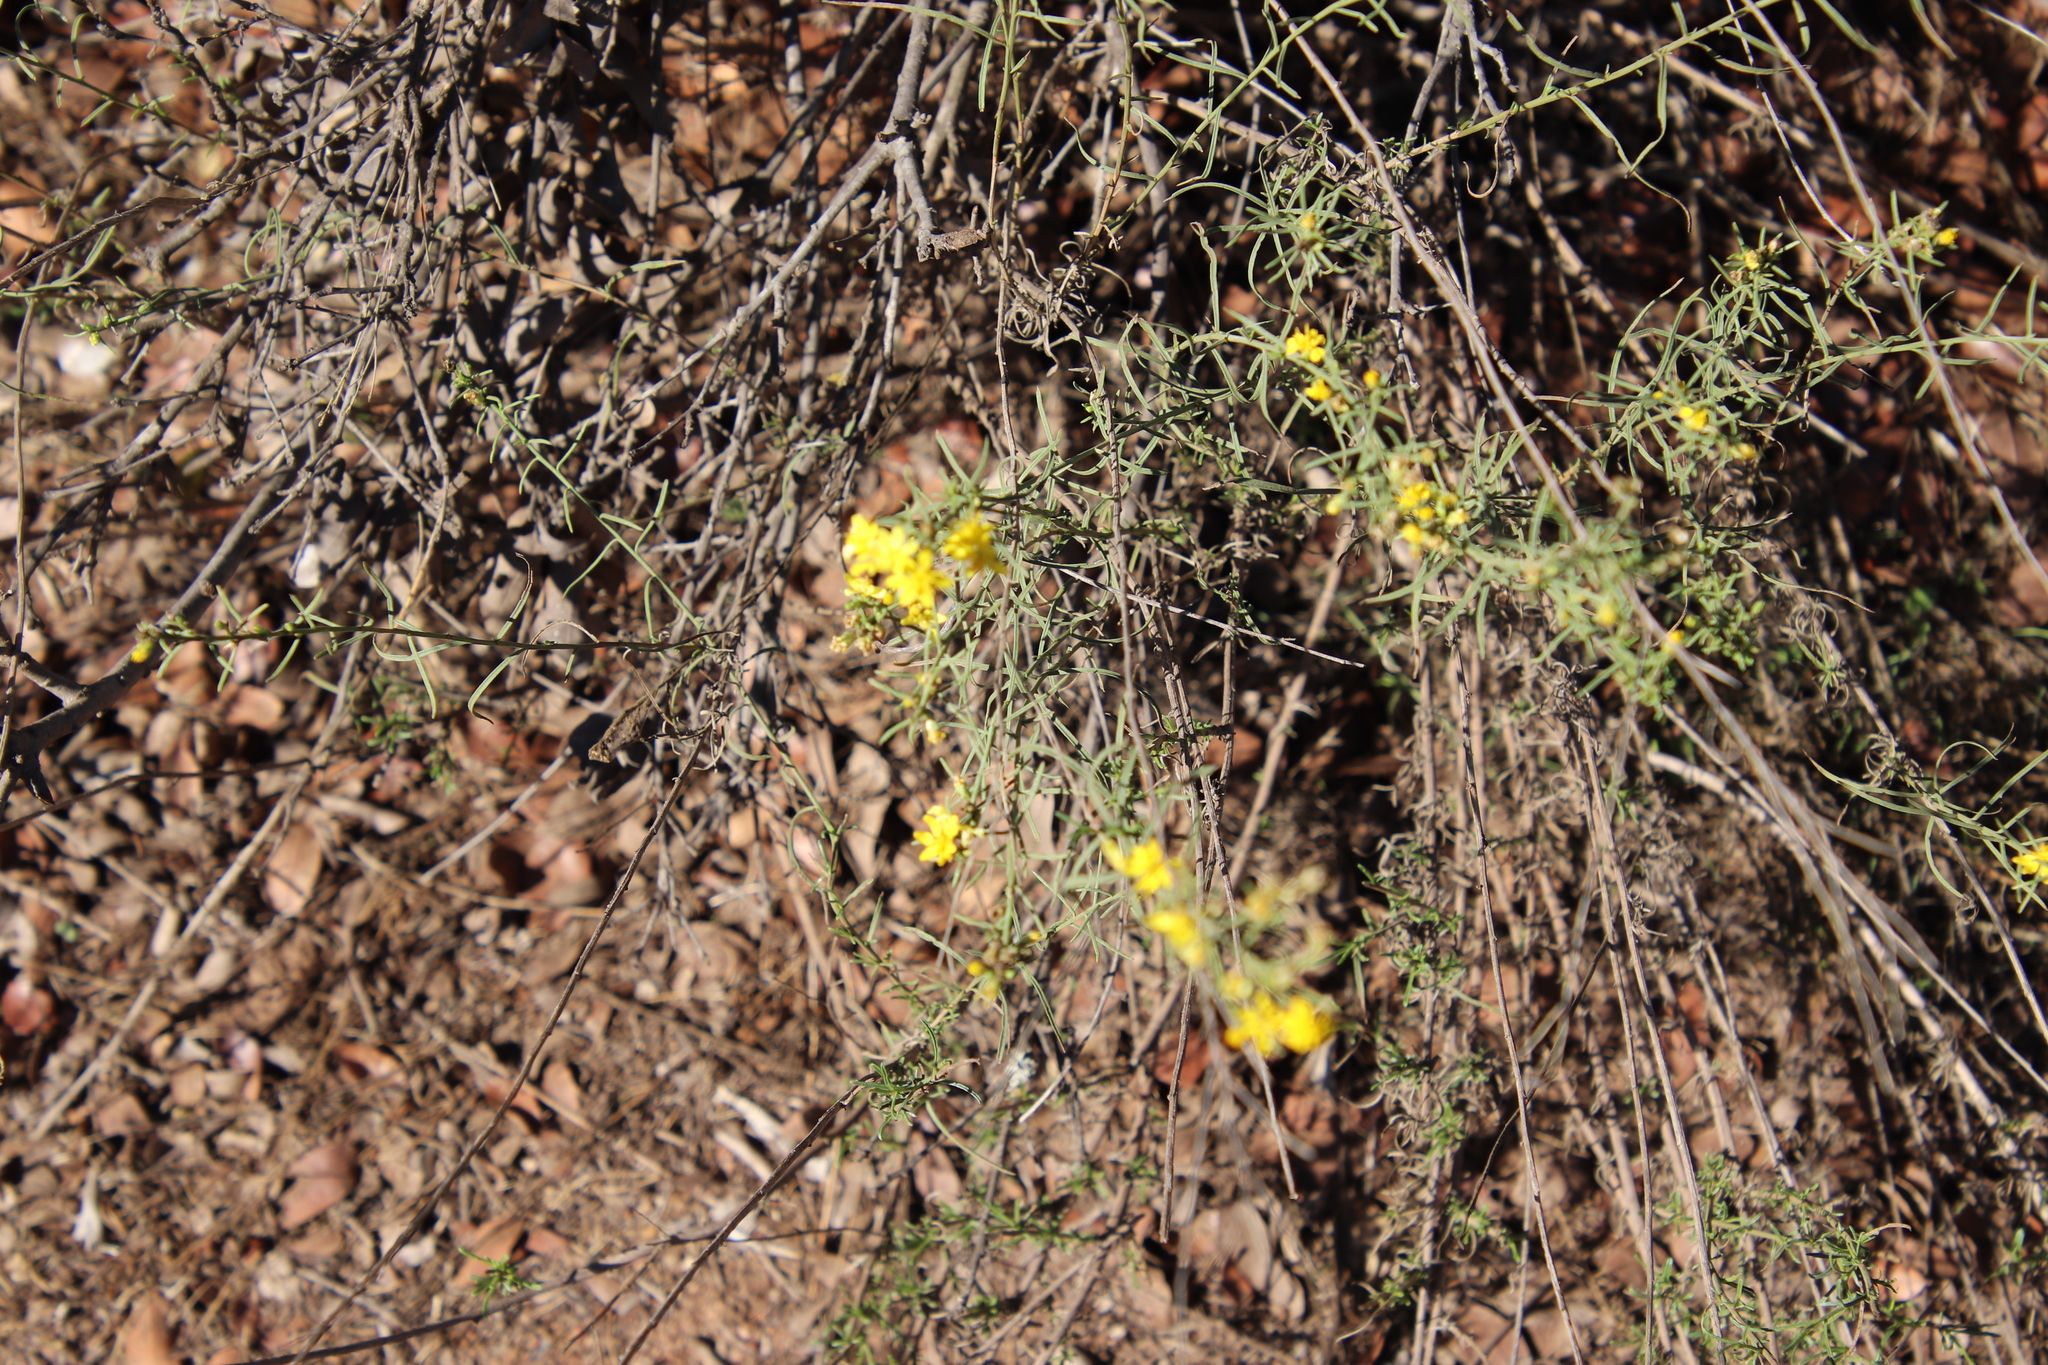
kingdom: Plantae
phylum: Tracheophyta
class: Magnoliopsida
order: Asterales
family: Asteraceae
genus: Gutierrezia
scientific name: Gutierrezia sarothrae
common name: Broom snakeweed
